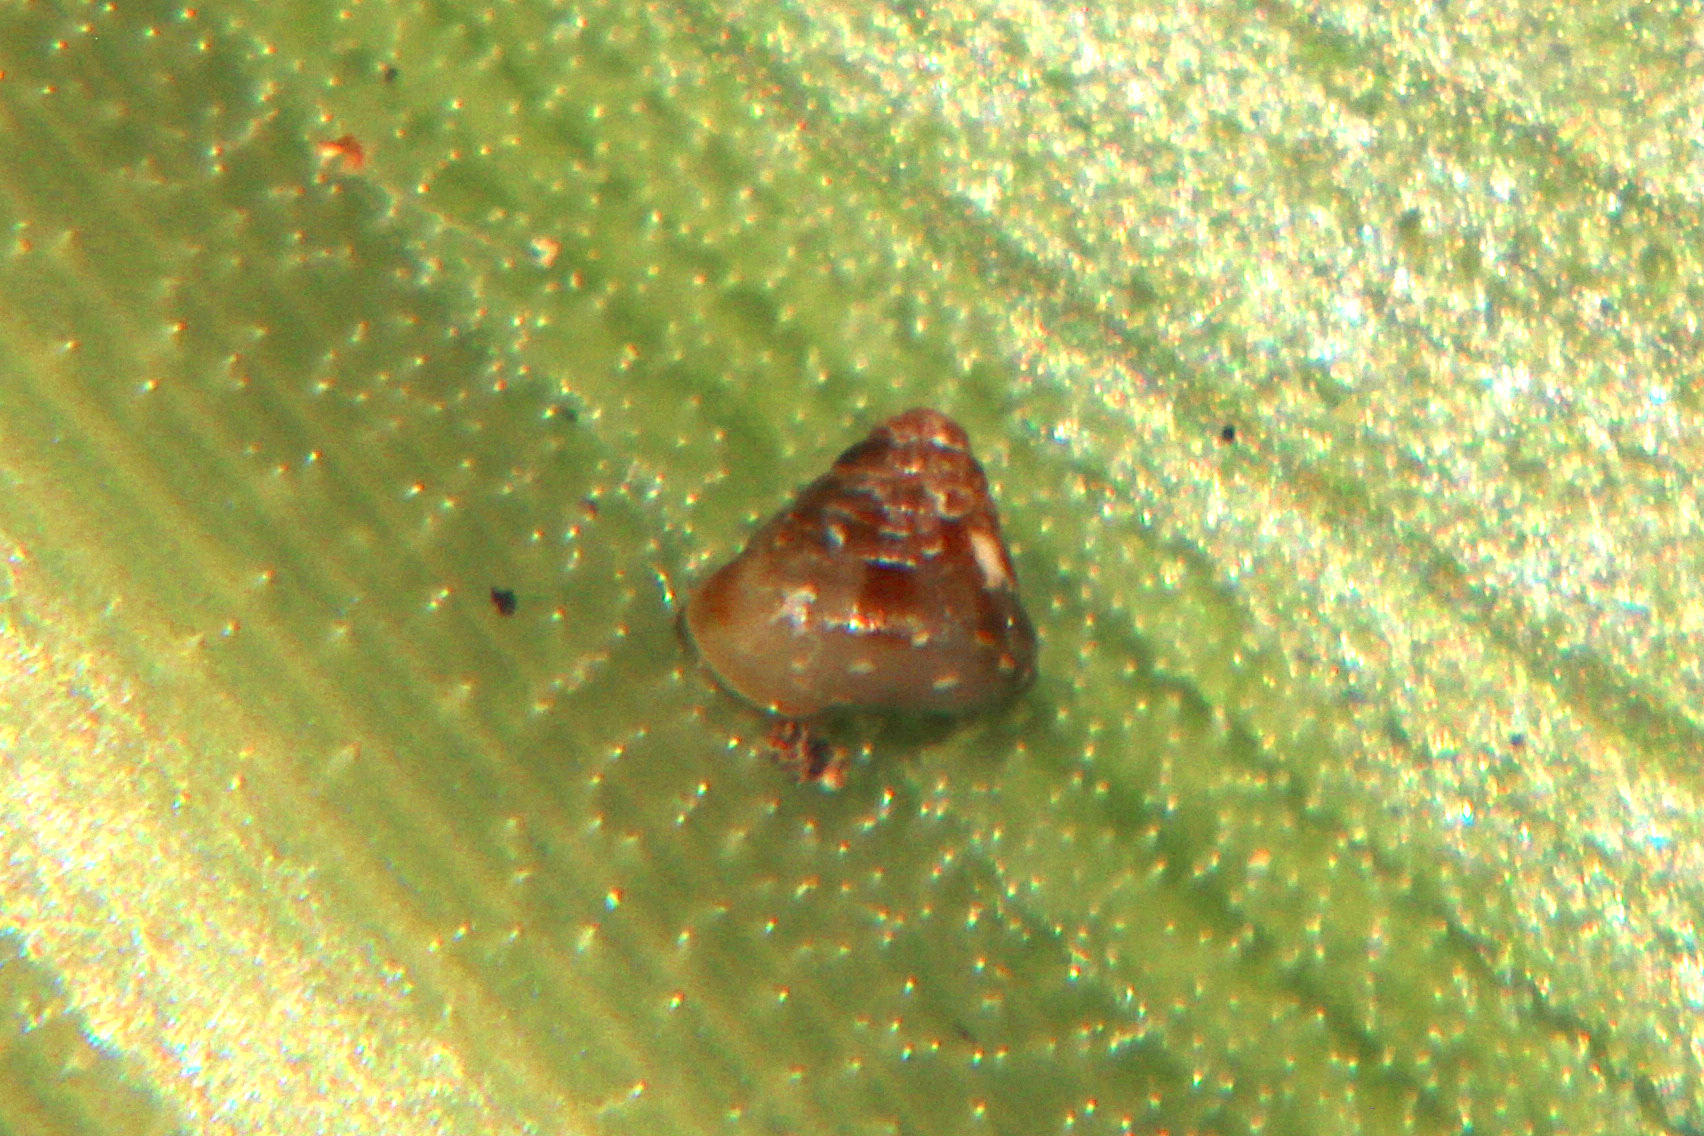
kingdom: Animalia
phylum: Mollusca
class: Gastropoda
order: Stylommatophora
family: Punctidae
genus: Phrixgnathus
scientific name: Phrixgnathus erigone
